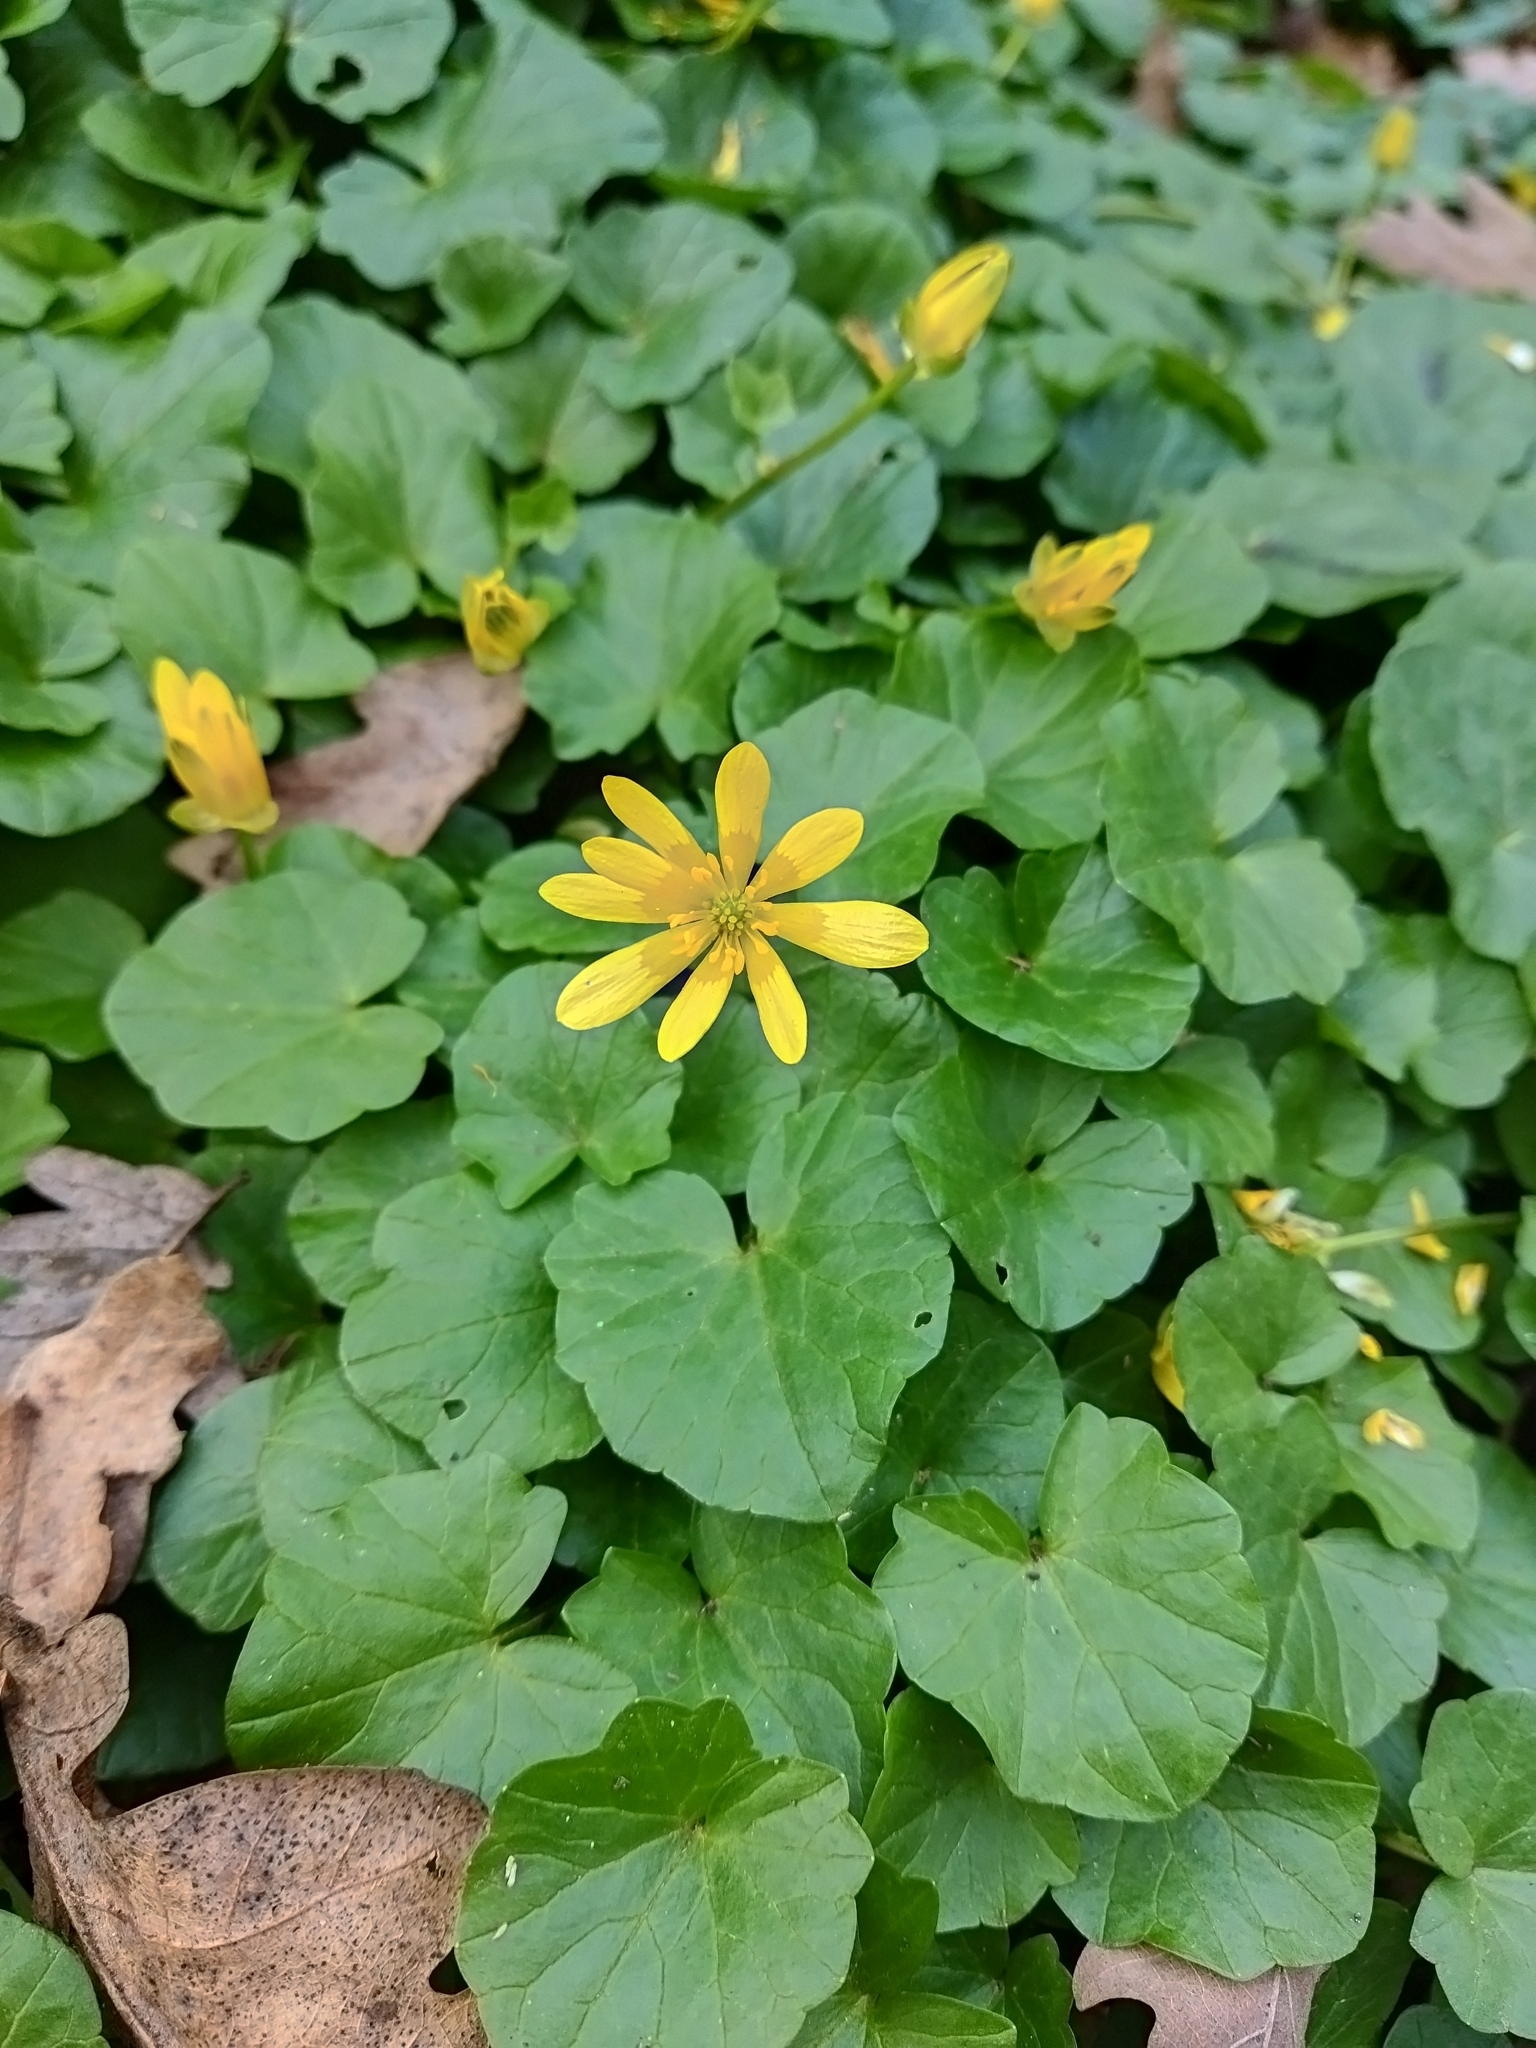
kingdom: Plantae
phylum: Tracheophyta
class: Magnoliopsida
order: Ranunculales
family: Ranunculaceae
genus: Ficaria
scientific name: Ficaria verna
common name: Lesser celandine
